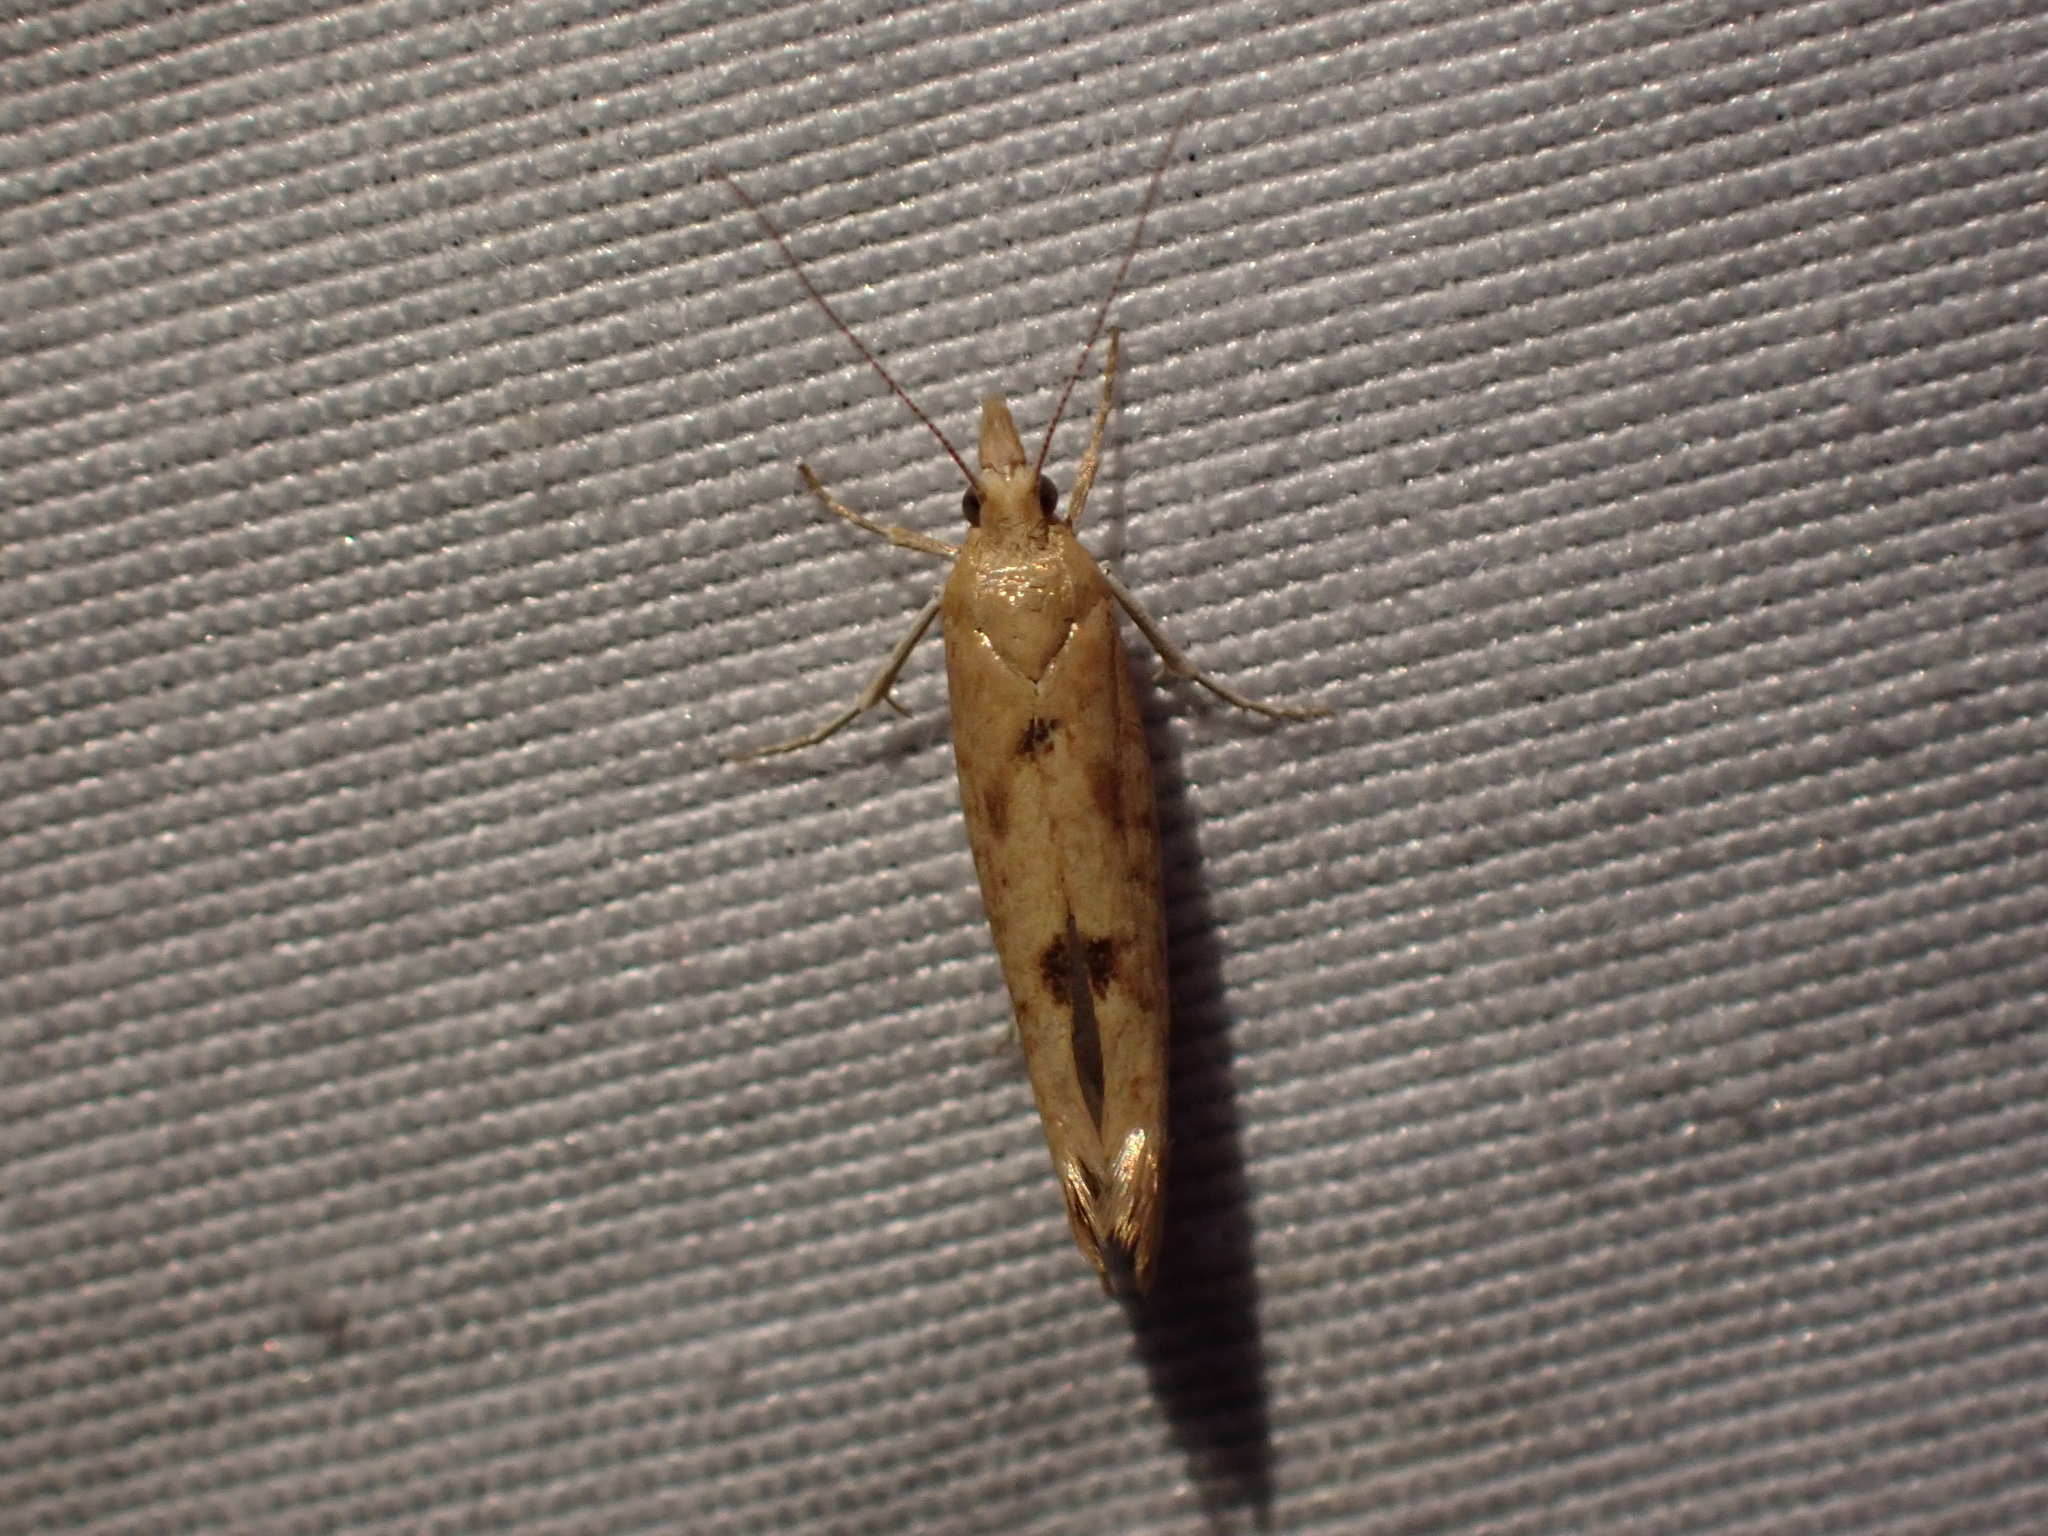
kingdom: Animalia
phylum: Arthropoda
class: Insecta
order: Lepidoptera
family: Ypsolophidae
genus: Ypsolopha
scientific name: Ypsolopha cervella
